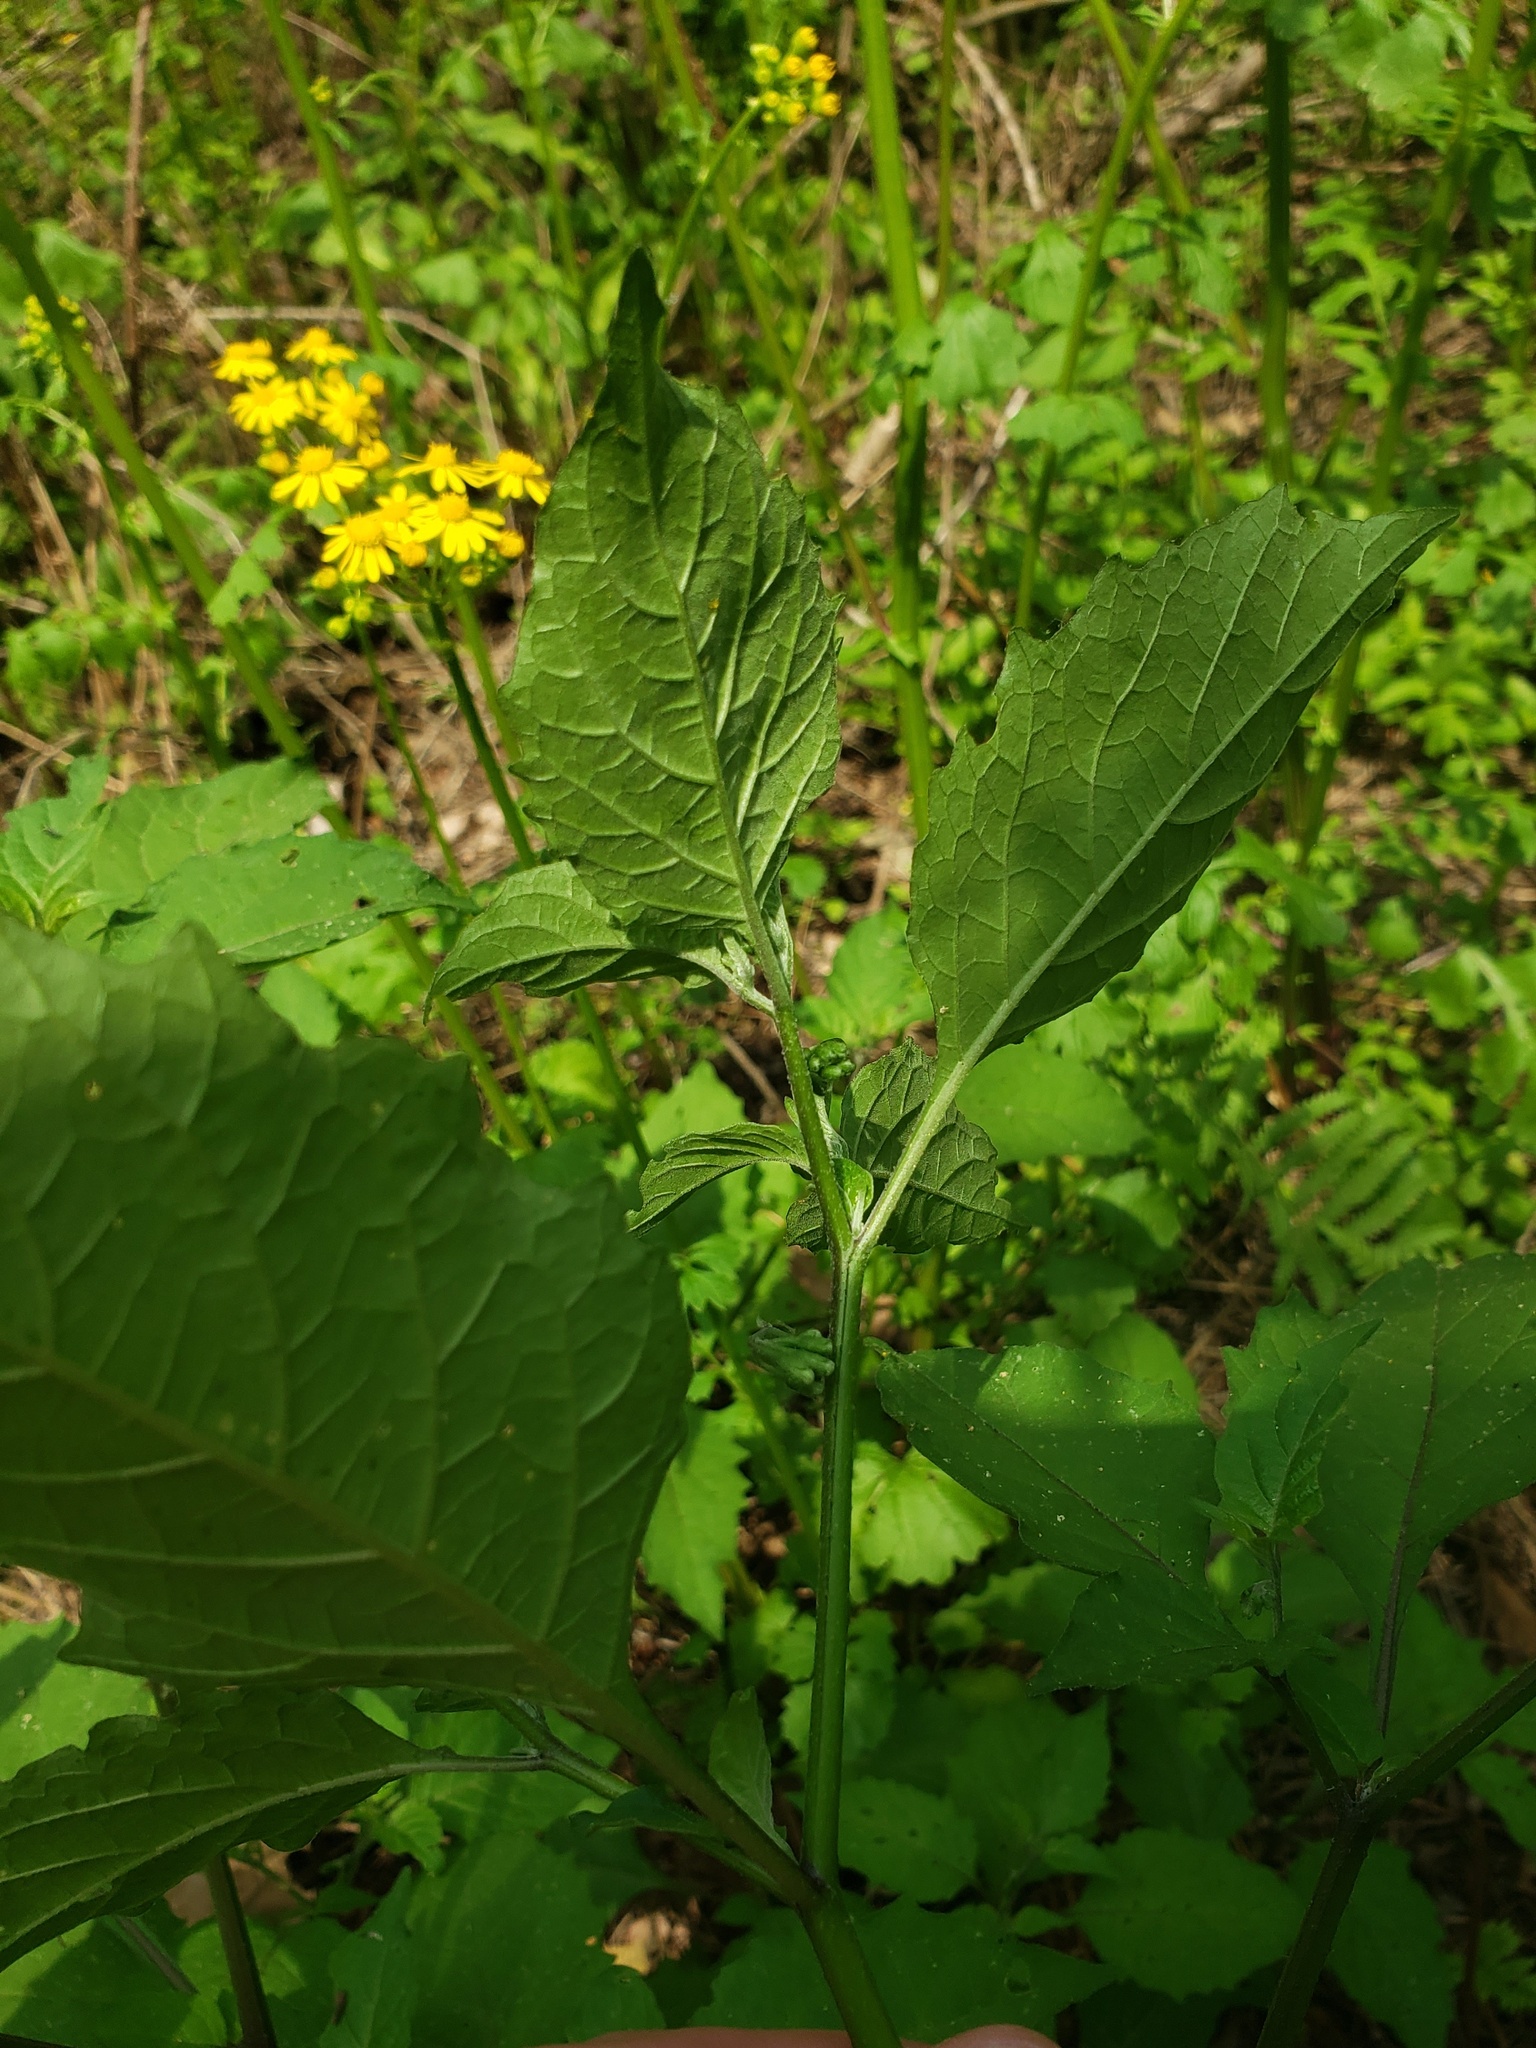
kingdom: Plantae
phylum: Tracheophyta
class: Magnoliopsida
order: Solanales
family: Solanaceae
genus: Solanum
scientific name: Solanum nigrescens
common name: Divine nightshade
